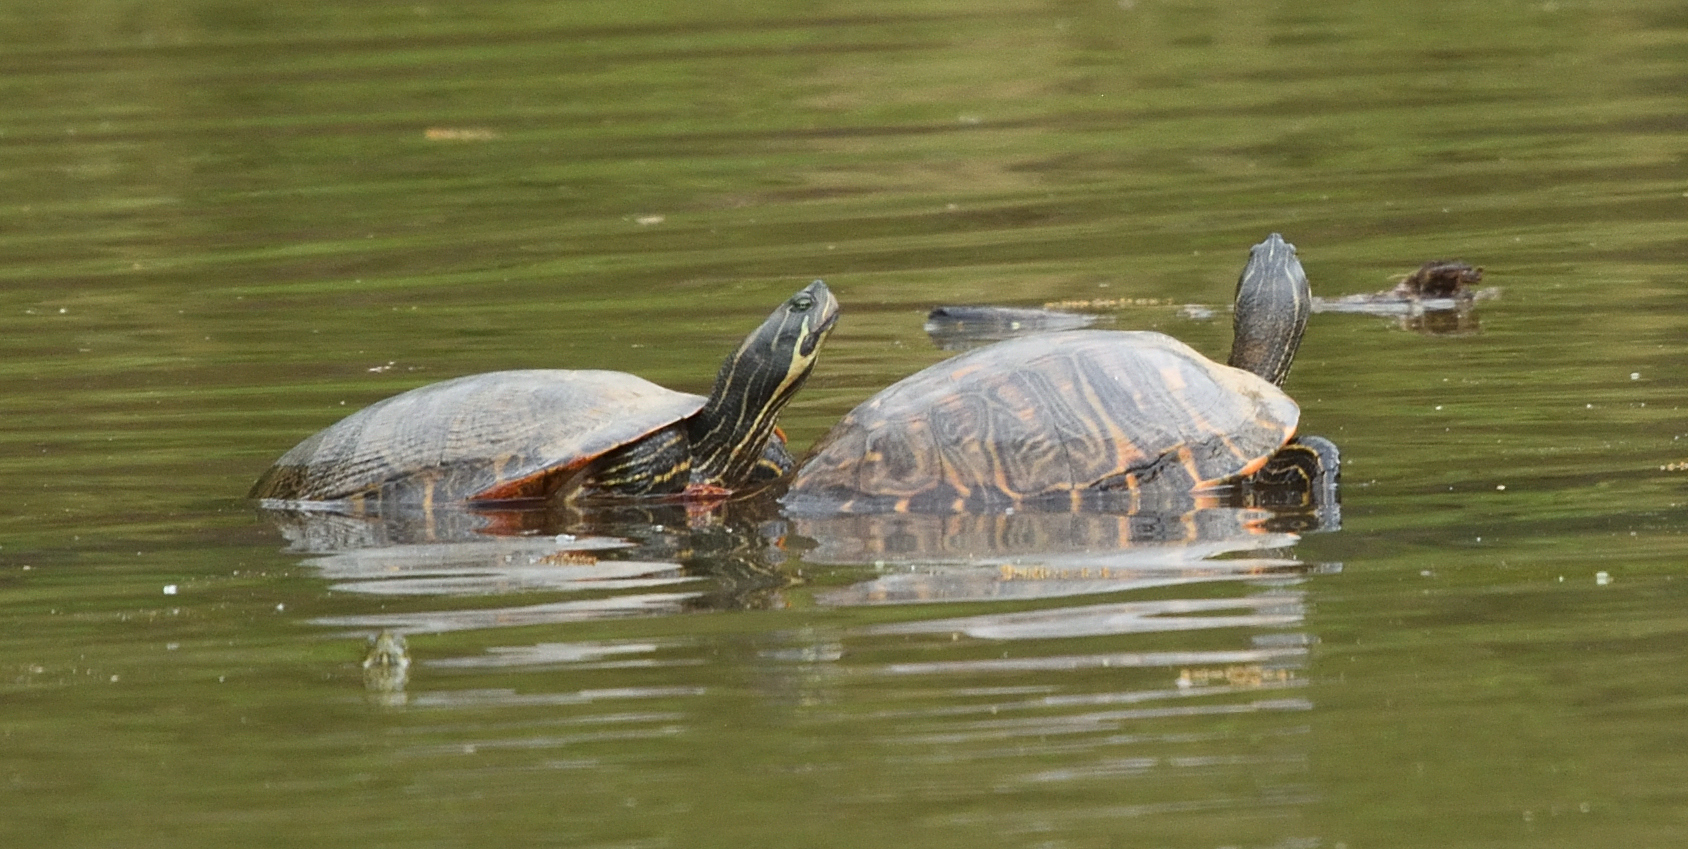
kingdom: Animalia
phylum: Chordata
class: Testudines
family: Emydidae
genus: Pseudemys
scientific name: Pseudemys concinna
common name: Eastern river cooter
